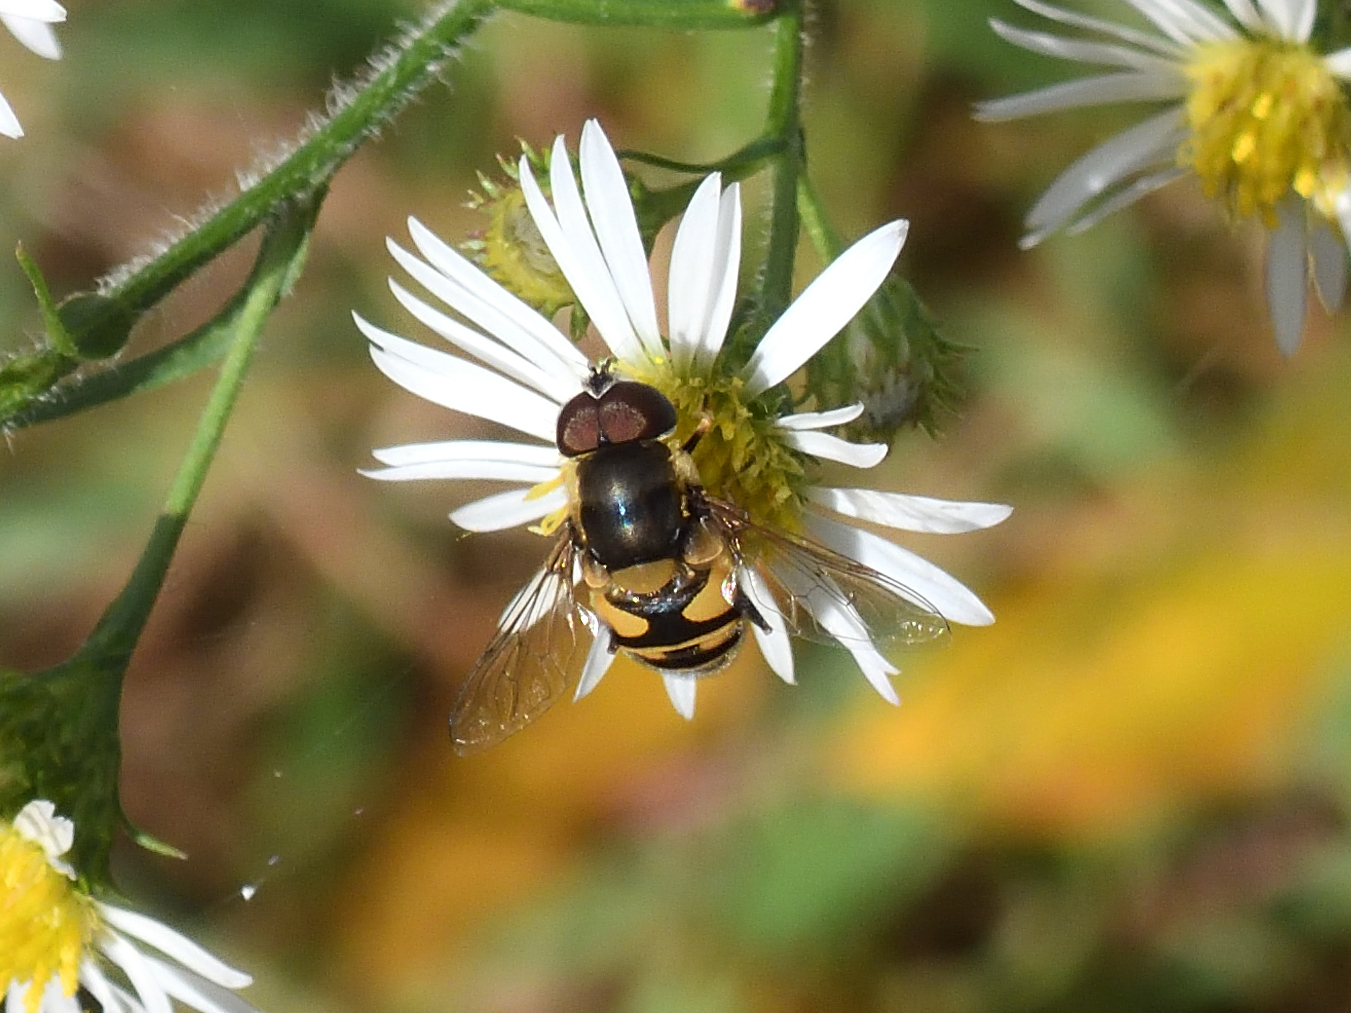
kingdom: Animalia
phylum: Arthropoda
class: Insecta
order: Diptera
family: Syrphidae
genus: Eristalis
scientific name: Eristalis transversa
